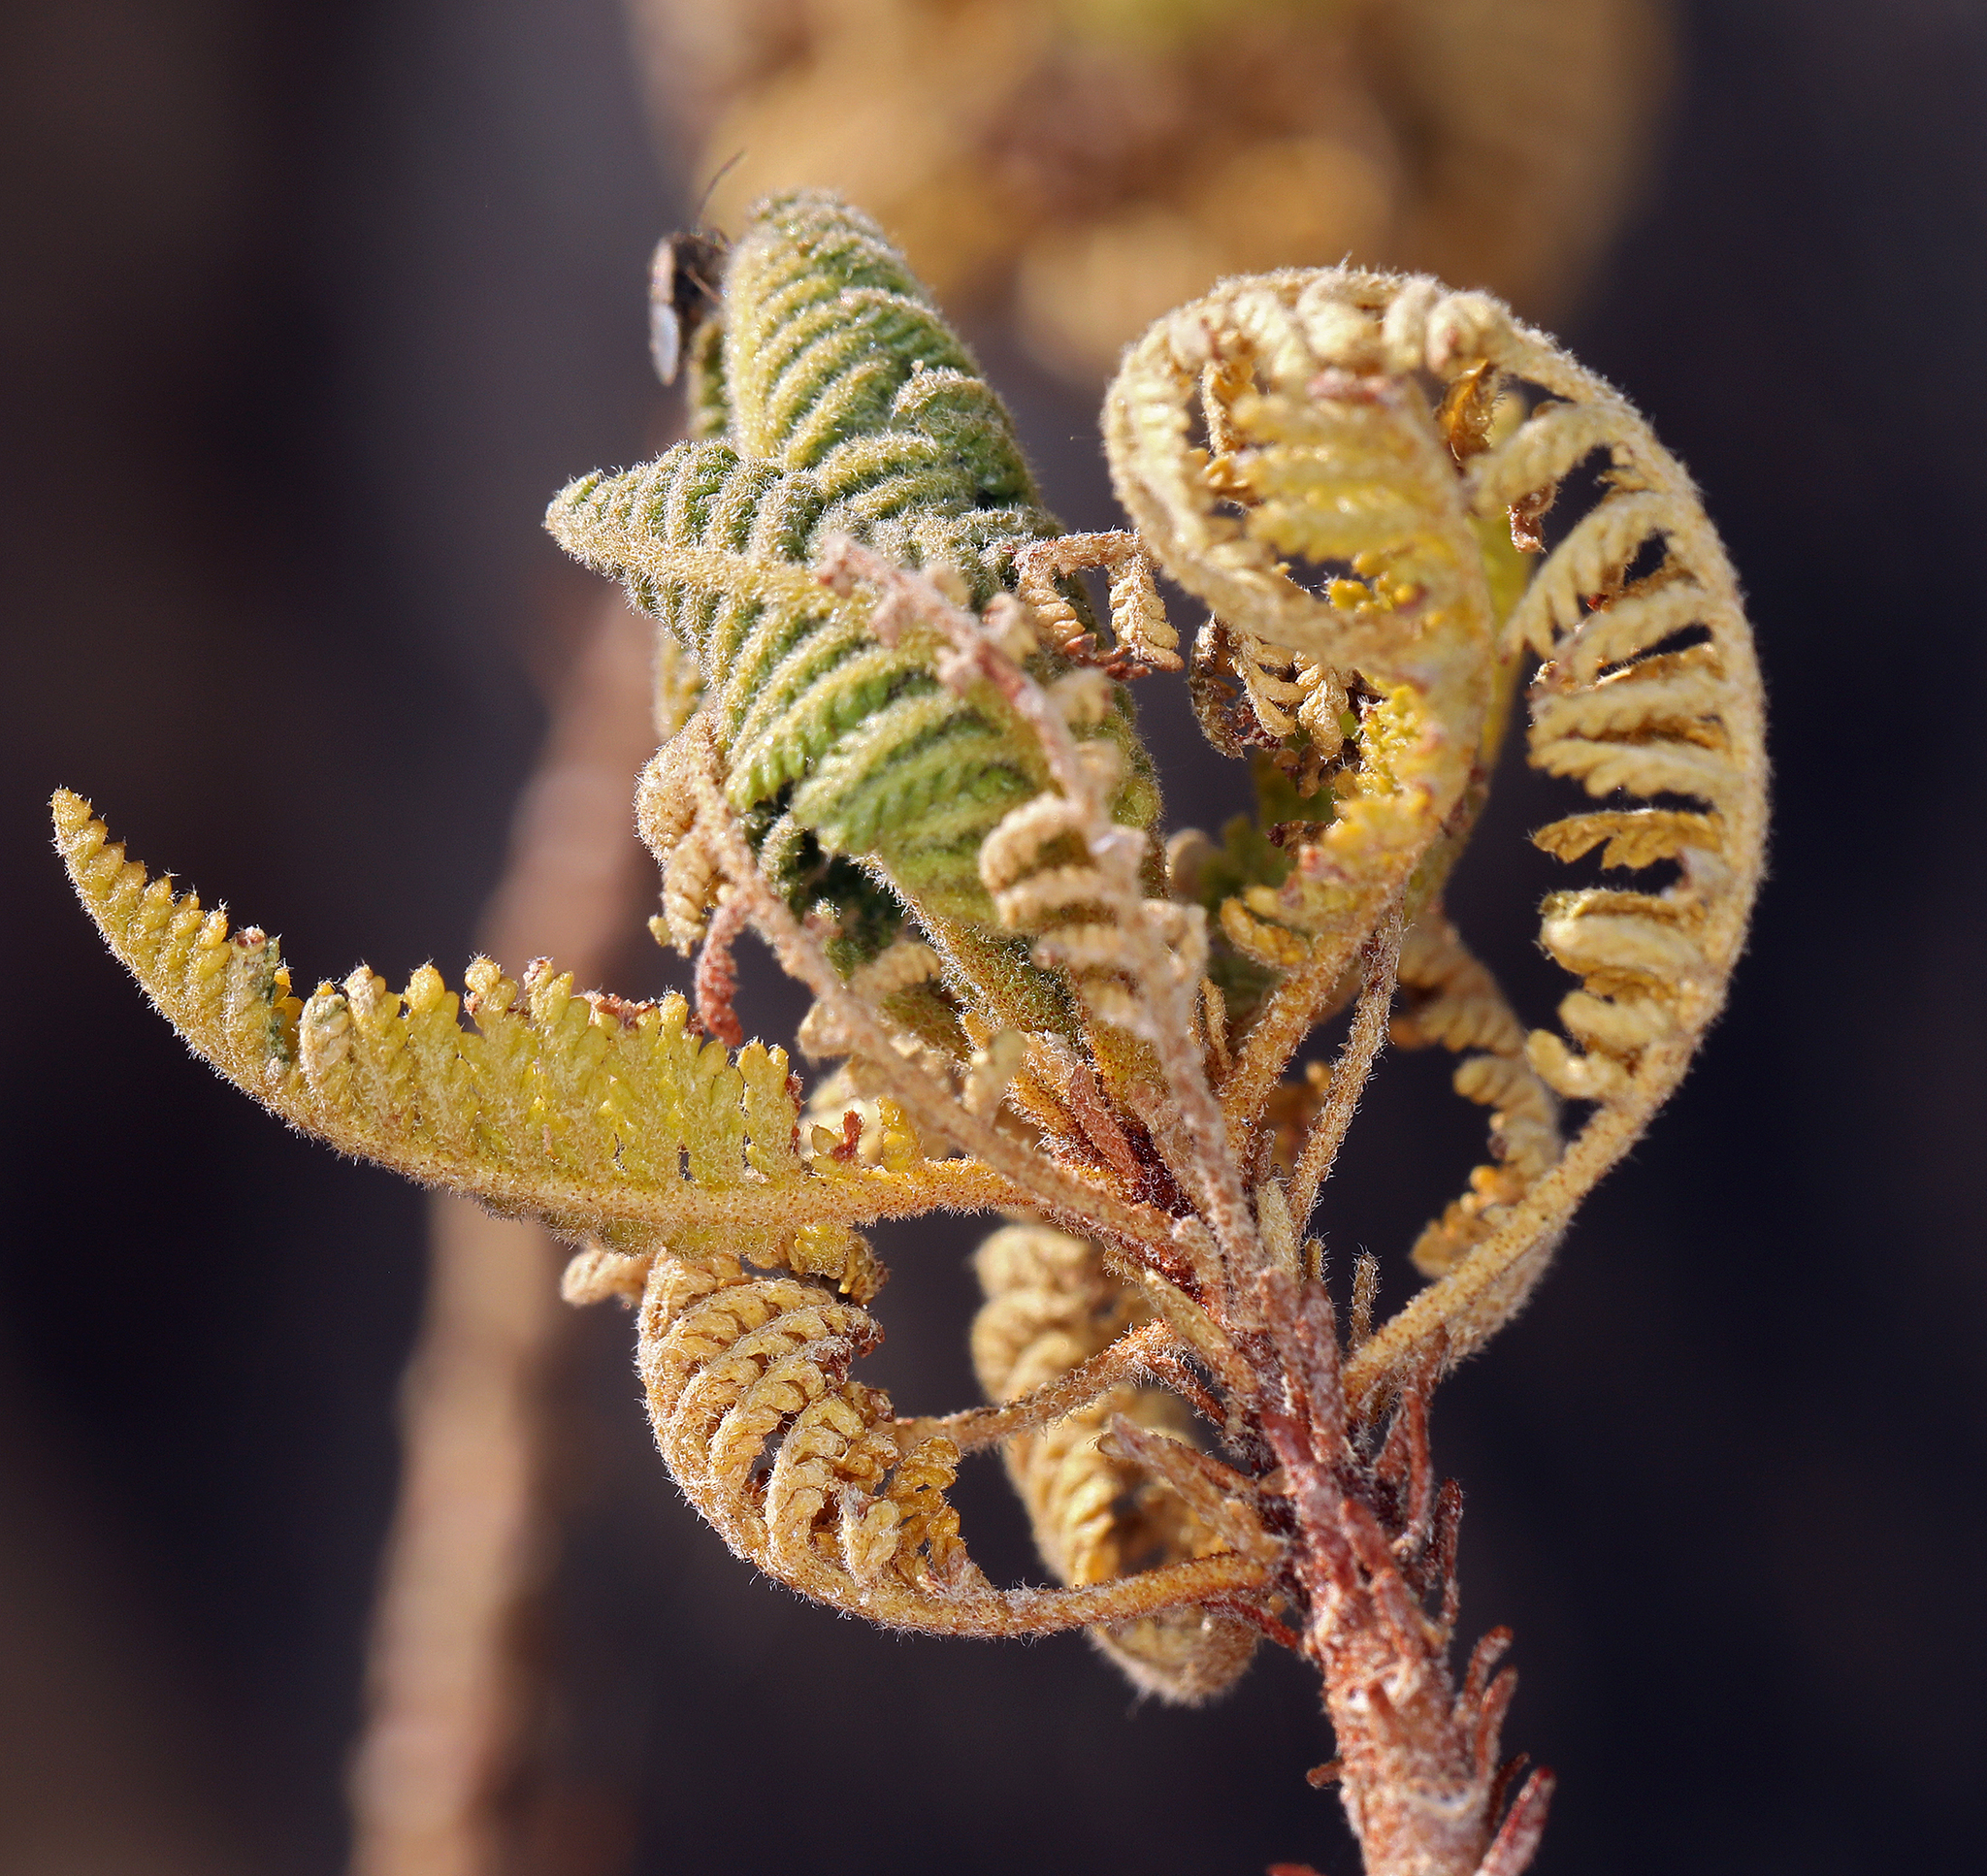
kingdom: Plantae
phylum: Tracheophyta
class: Magnoliopsida
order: Rosales
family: Rosaceae
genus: Chamaebatiaria
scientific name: Chamaebatiaria millefolium
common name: Fernbush
